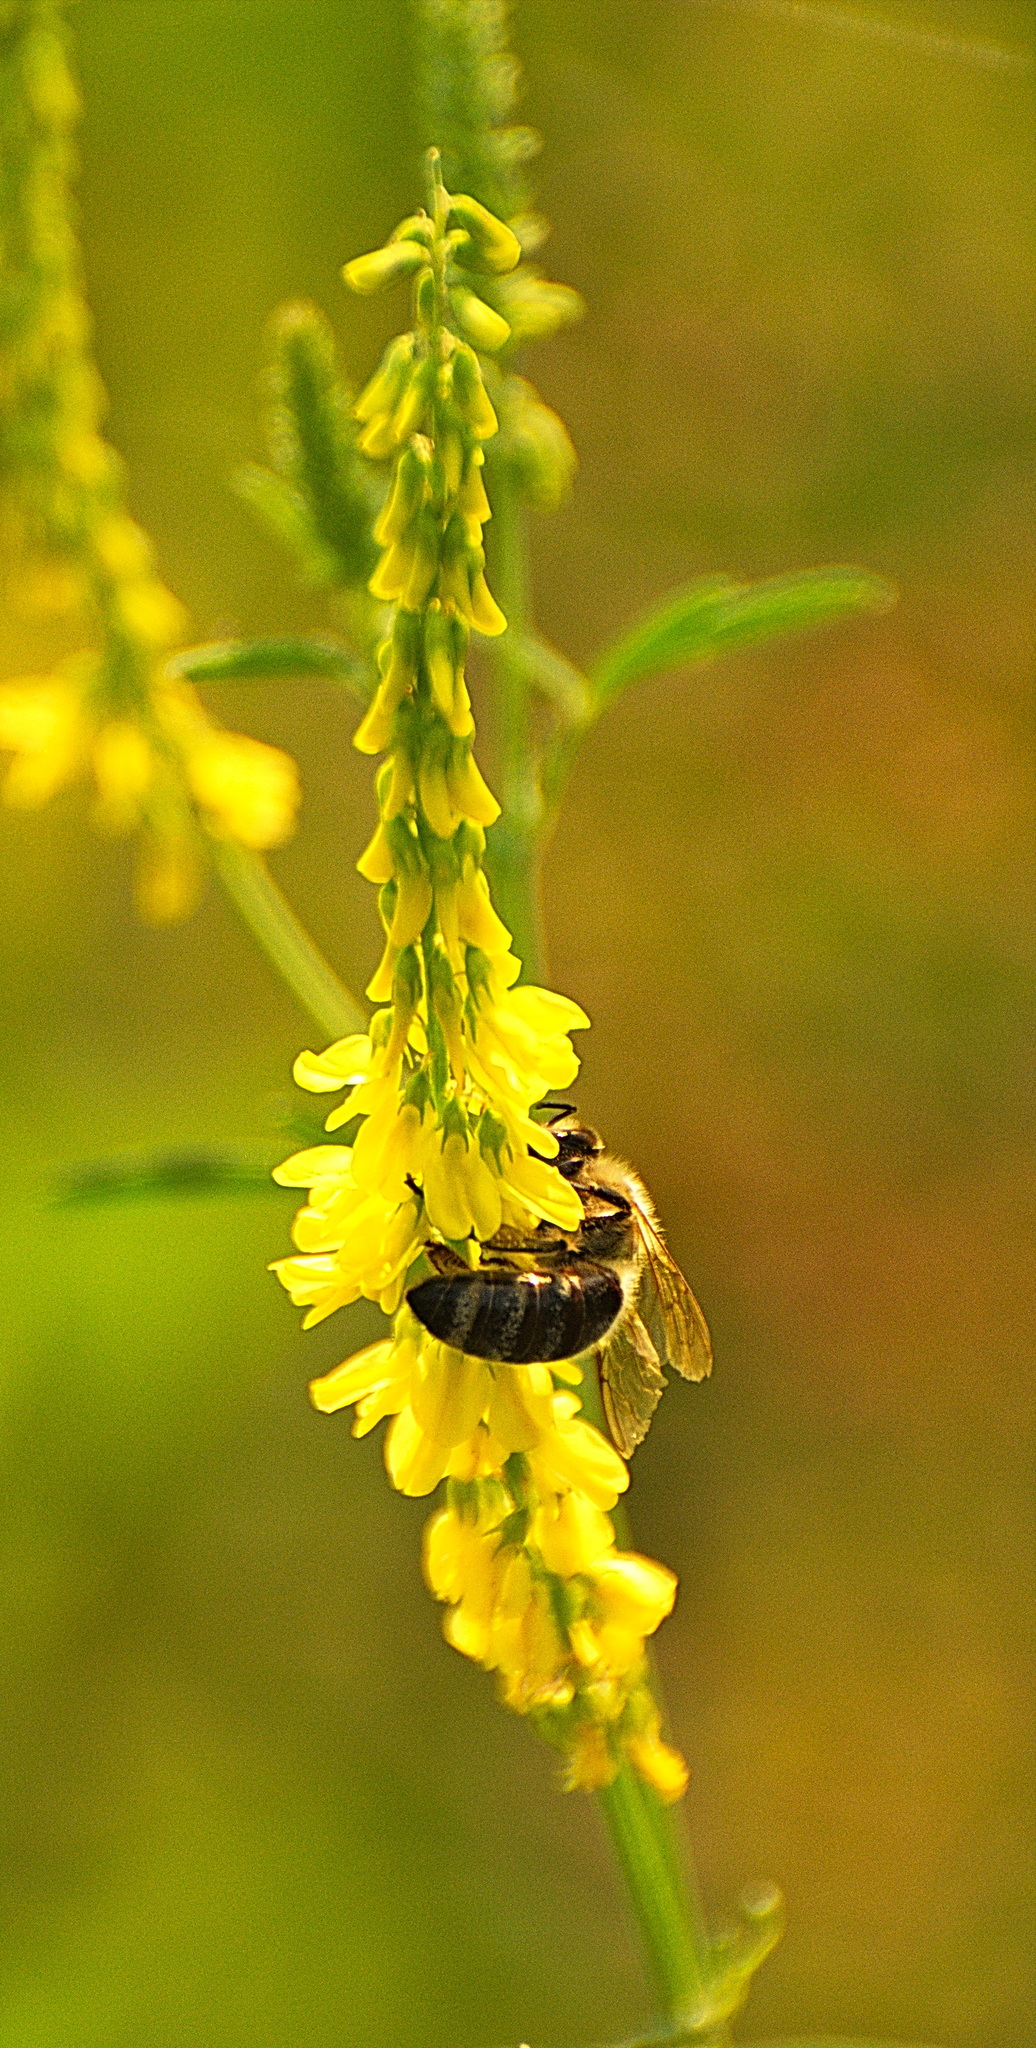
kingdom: Animalia
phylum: Arthropoda
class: Insecta
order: Hymenoptera
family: Apidae
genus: Apis
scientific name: Apis mellifera
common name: Honey bee
